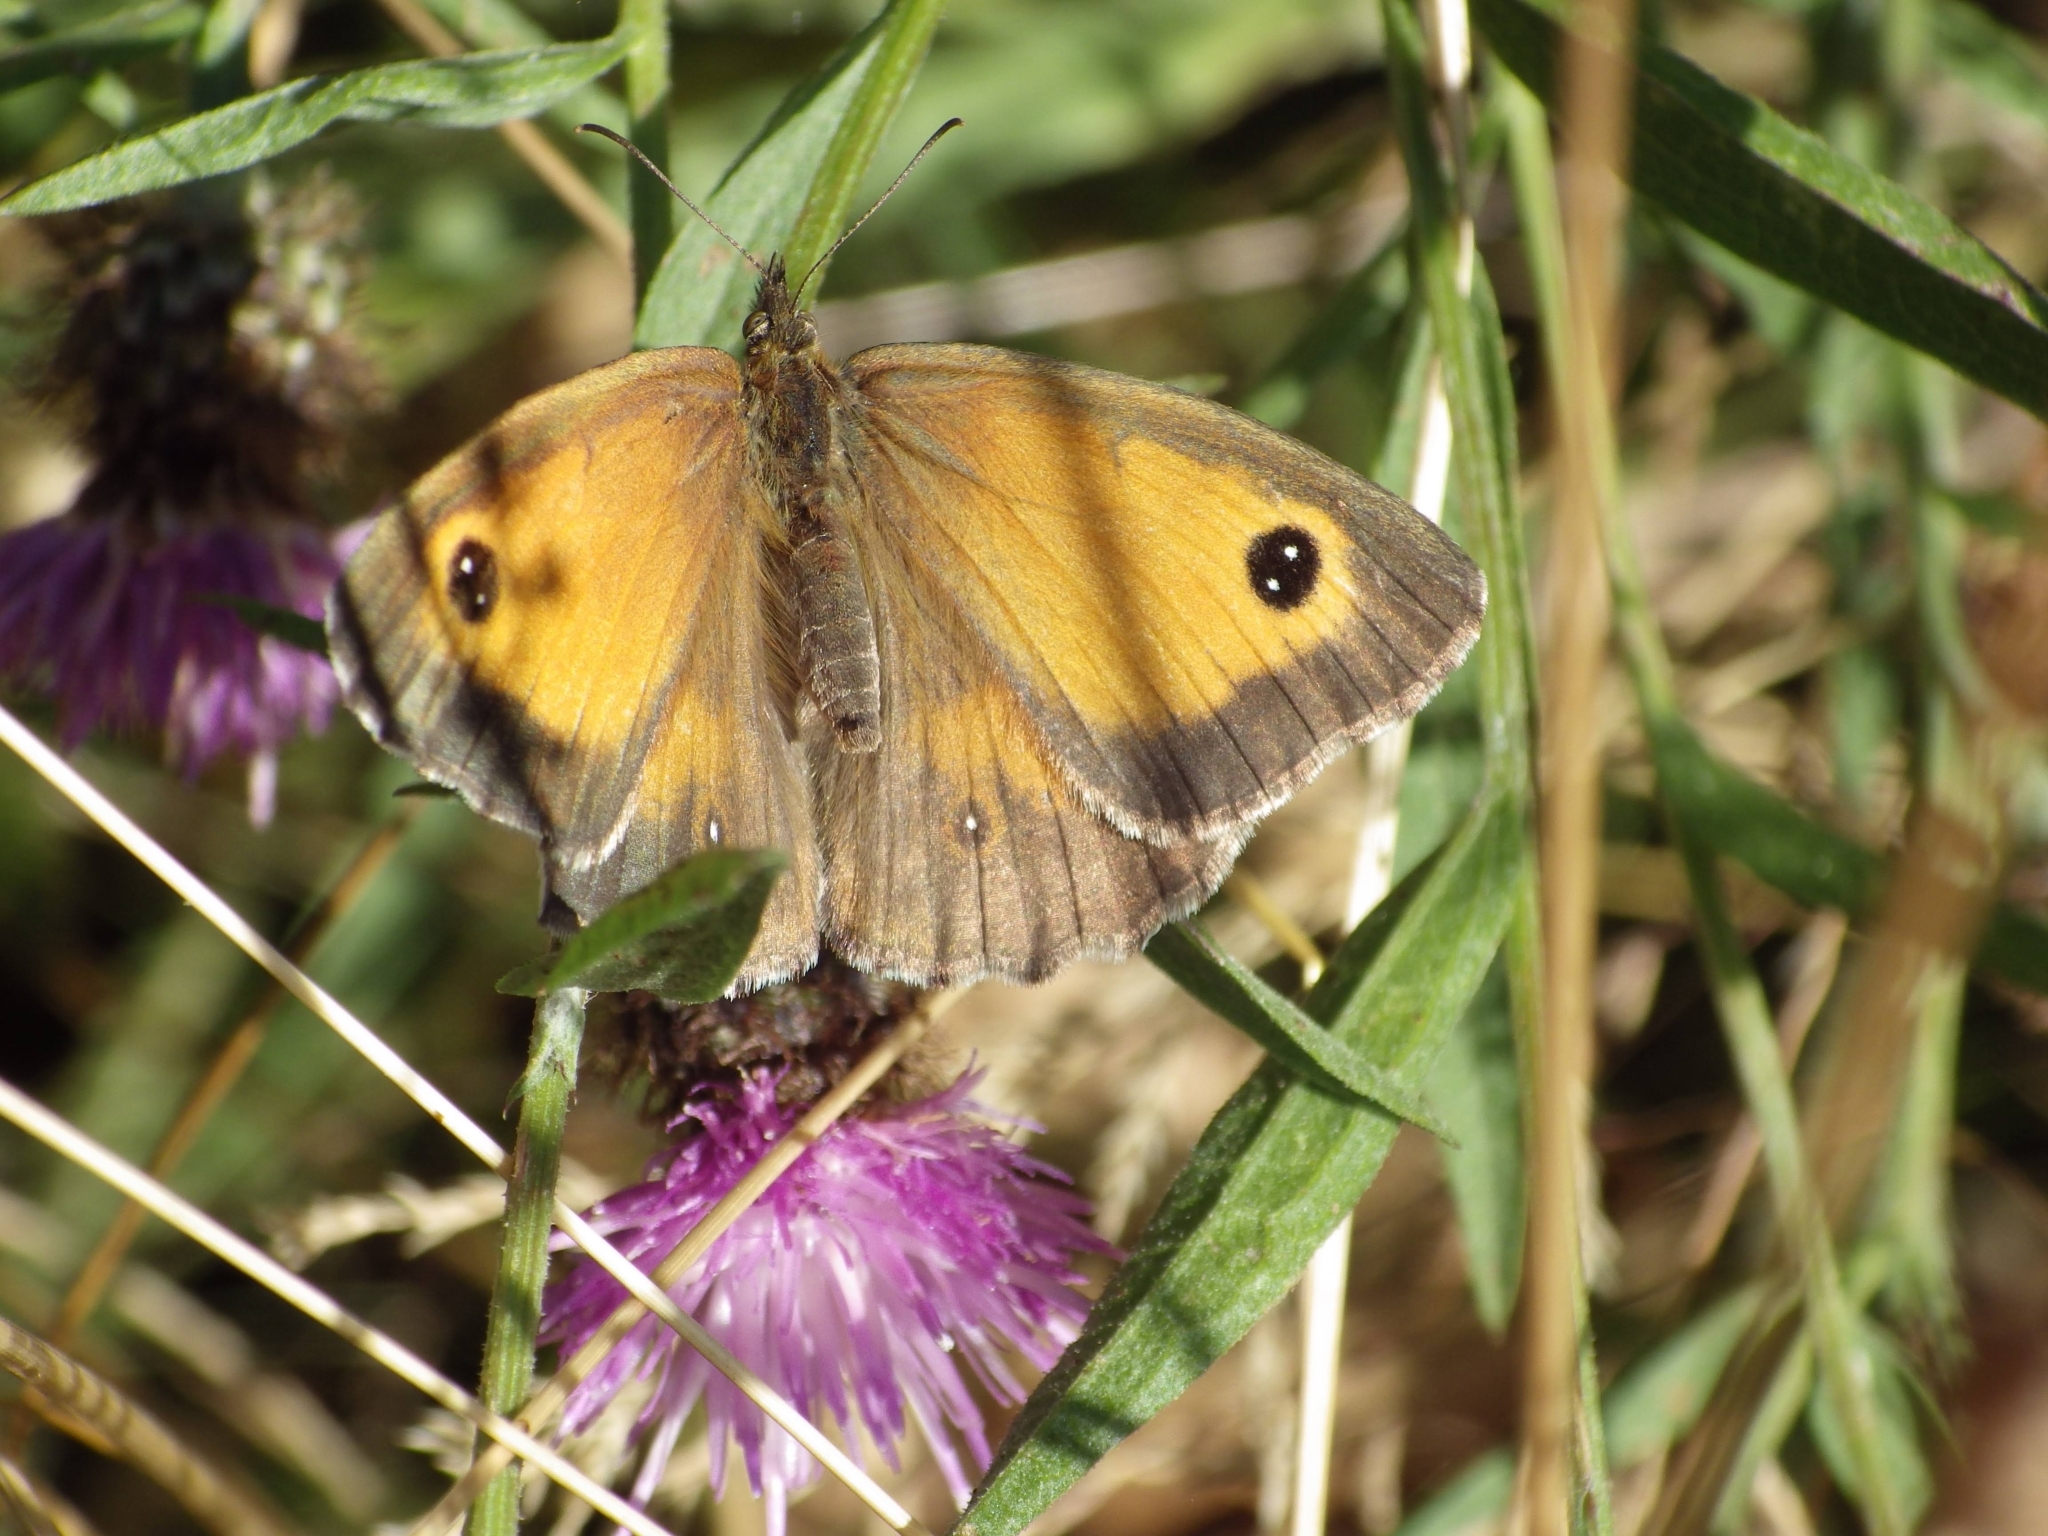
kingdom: Animalia
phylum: Arthropoda
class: Insecta
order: Lepidoptera
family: Nymphalidae
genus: Pyronia
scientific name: Pyronia tithonus
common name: Gatekeeper
